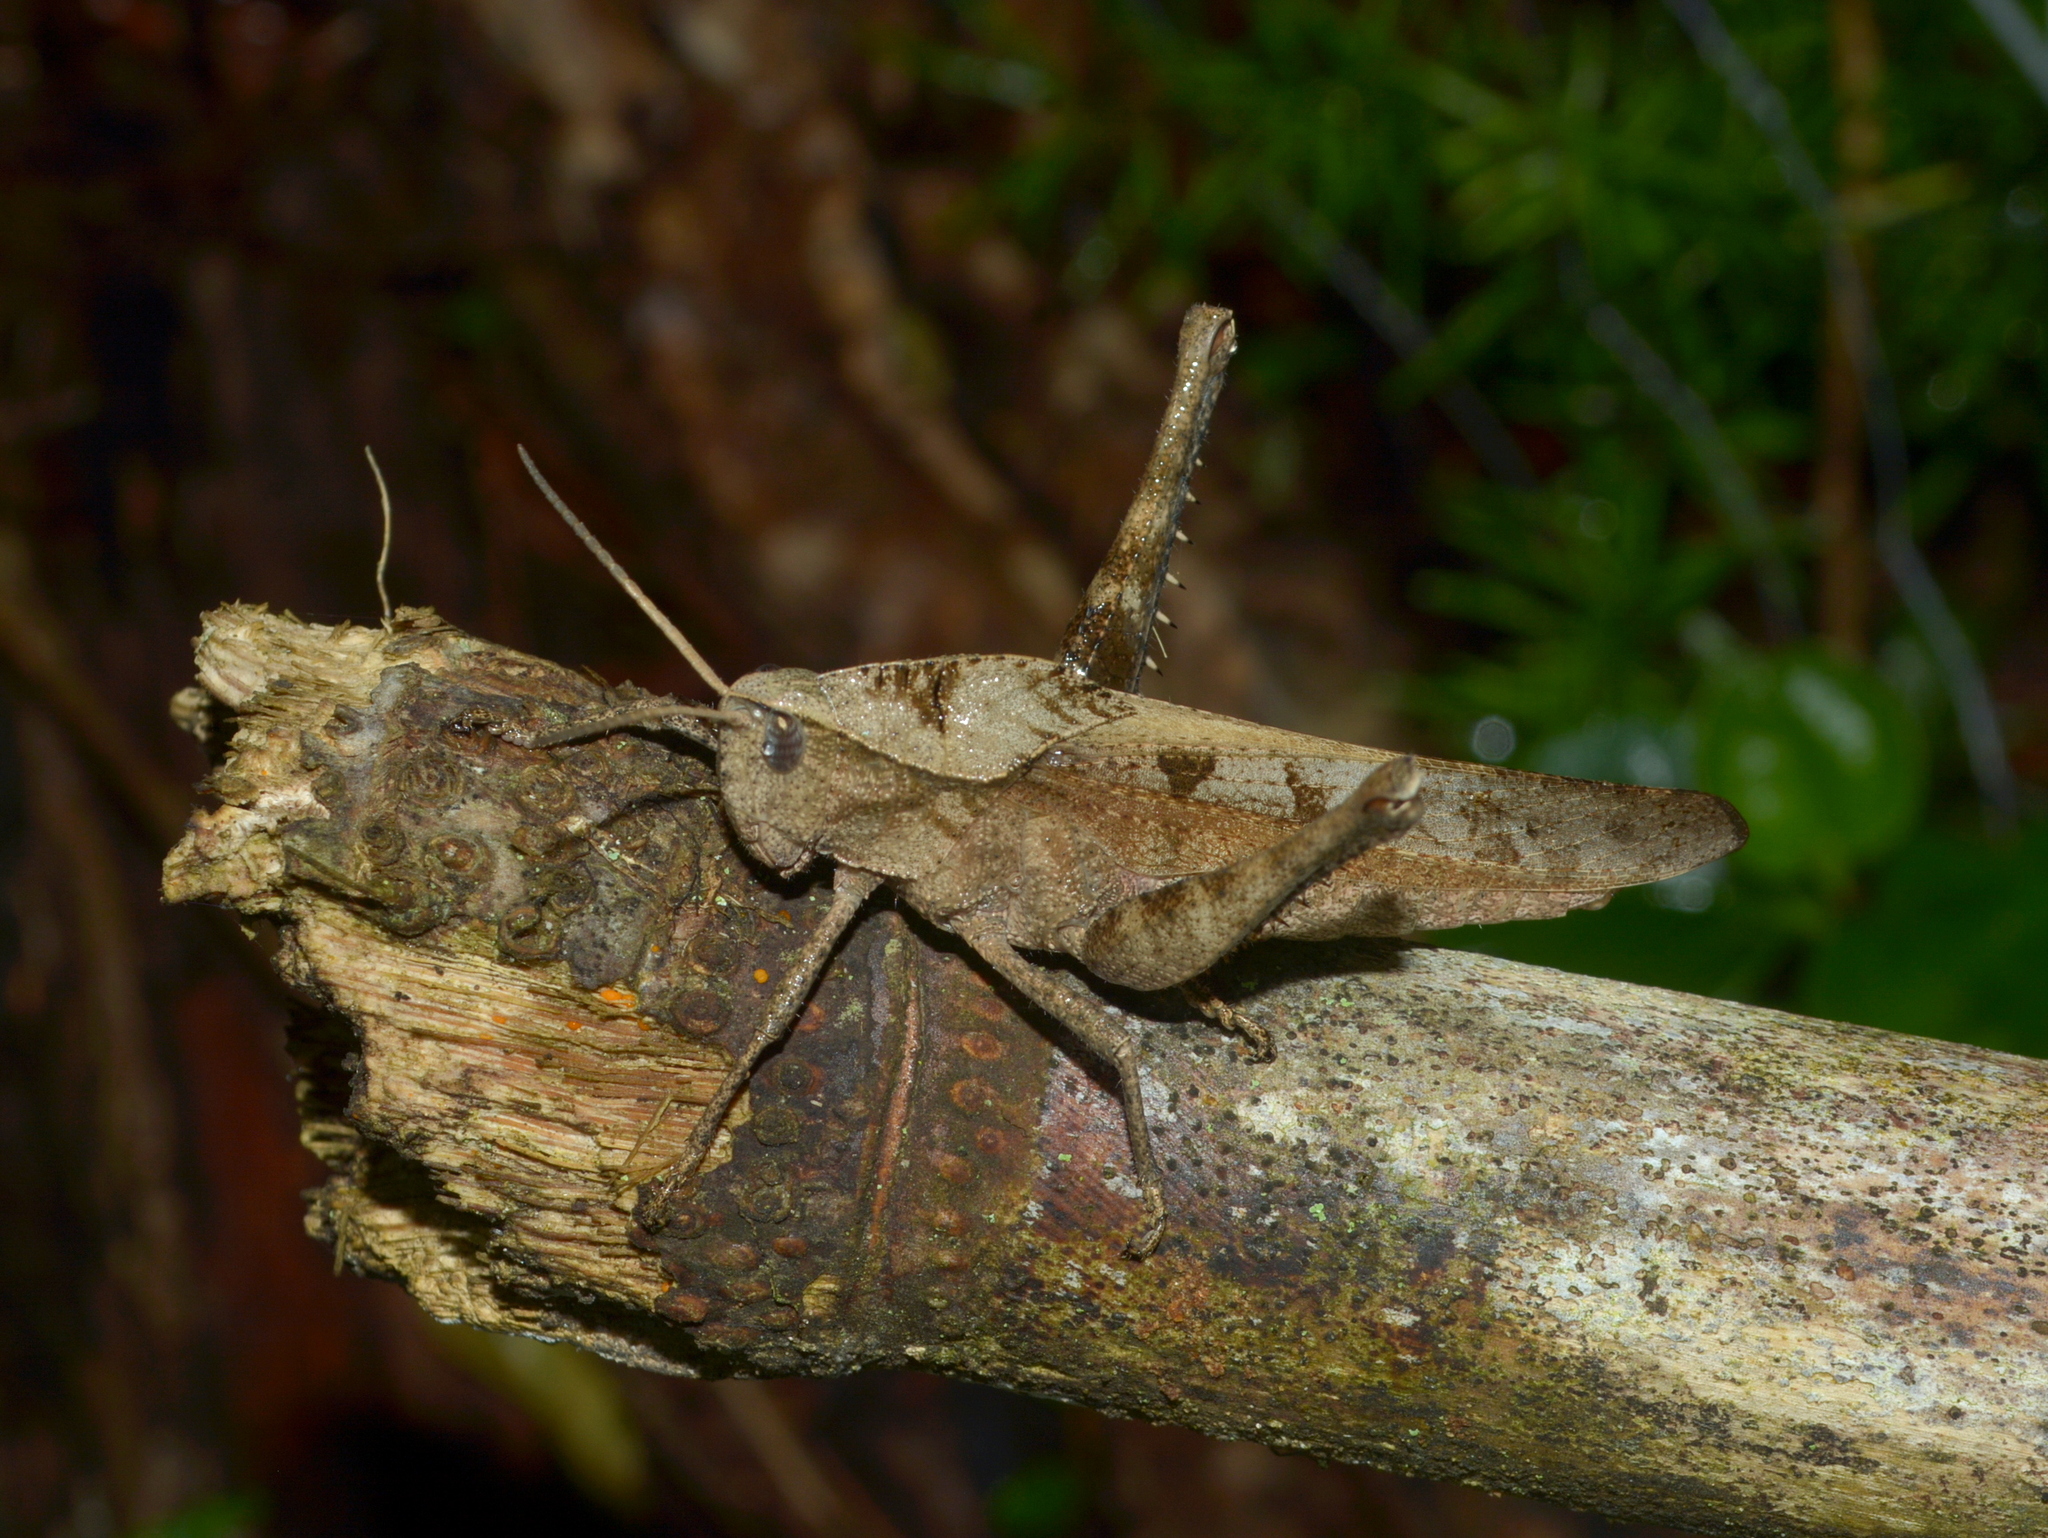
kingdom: Animalia
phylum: Arthropoda
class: Insecta
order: Orthoptera
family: Romaleidae
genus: Xyleus
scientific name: Xyleus discoideus
